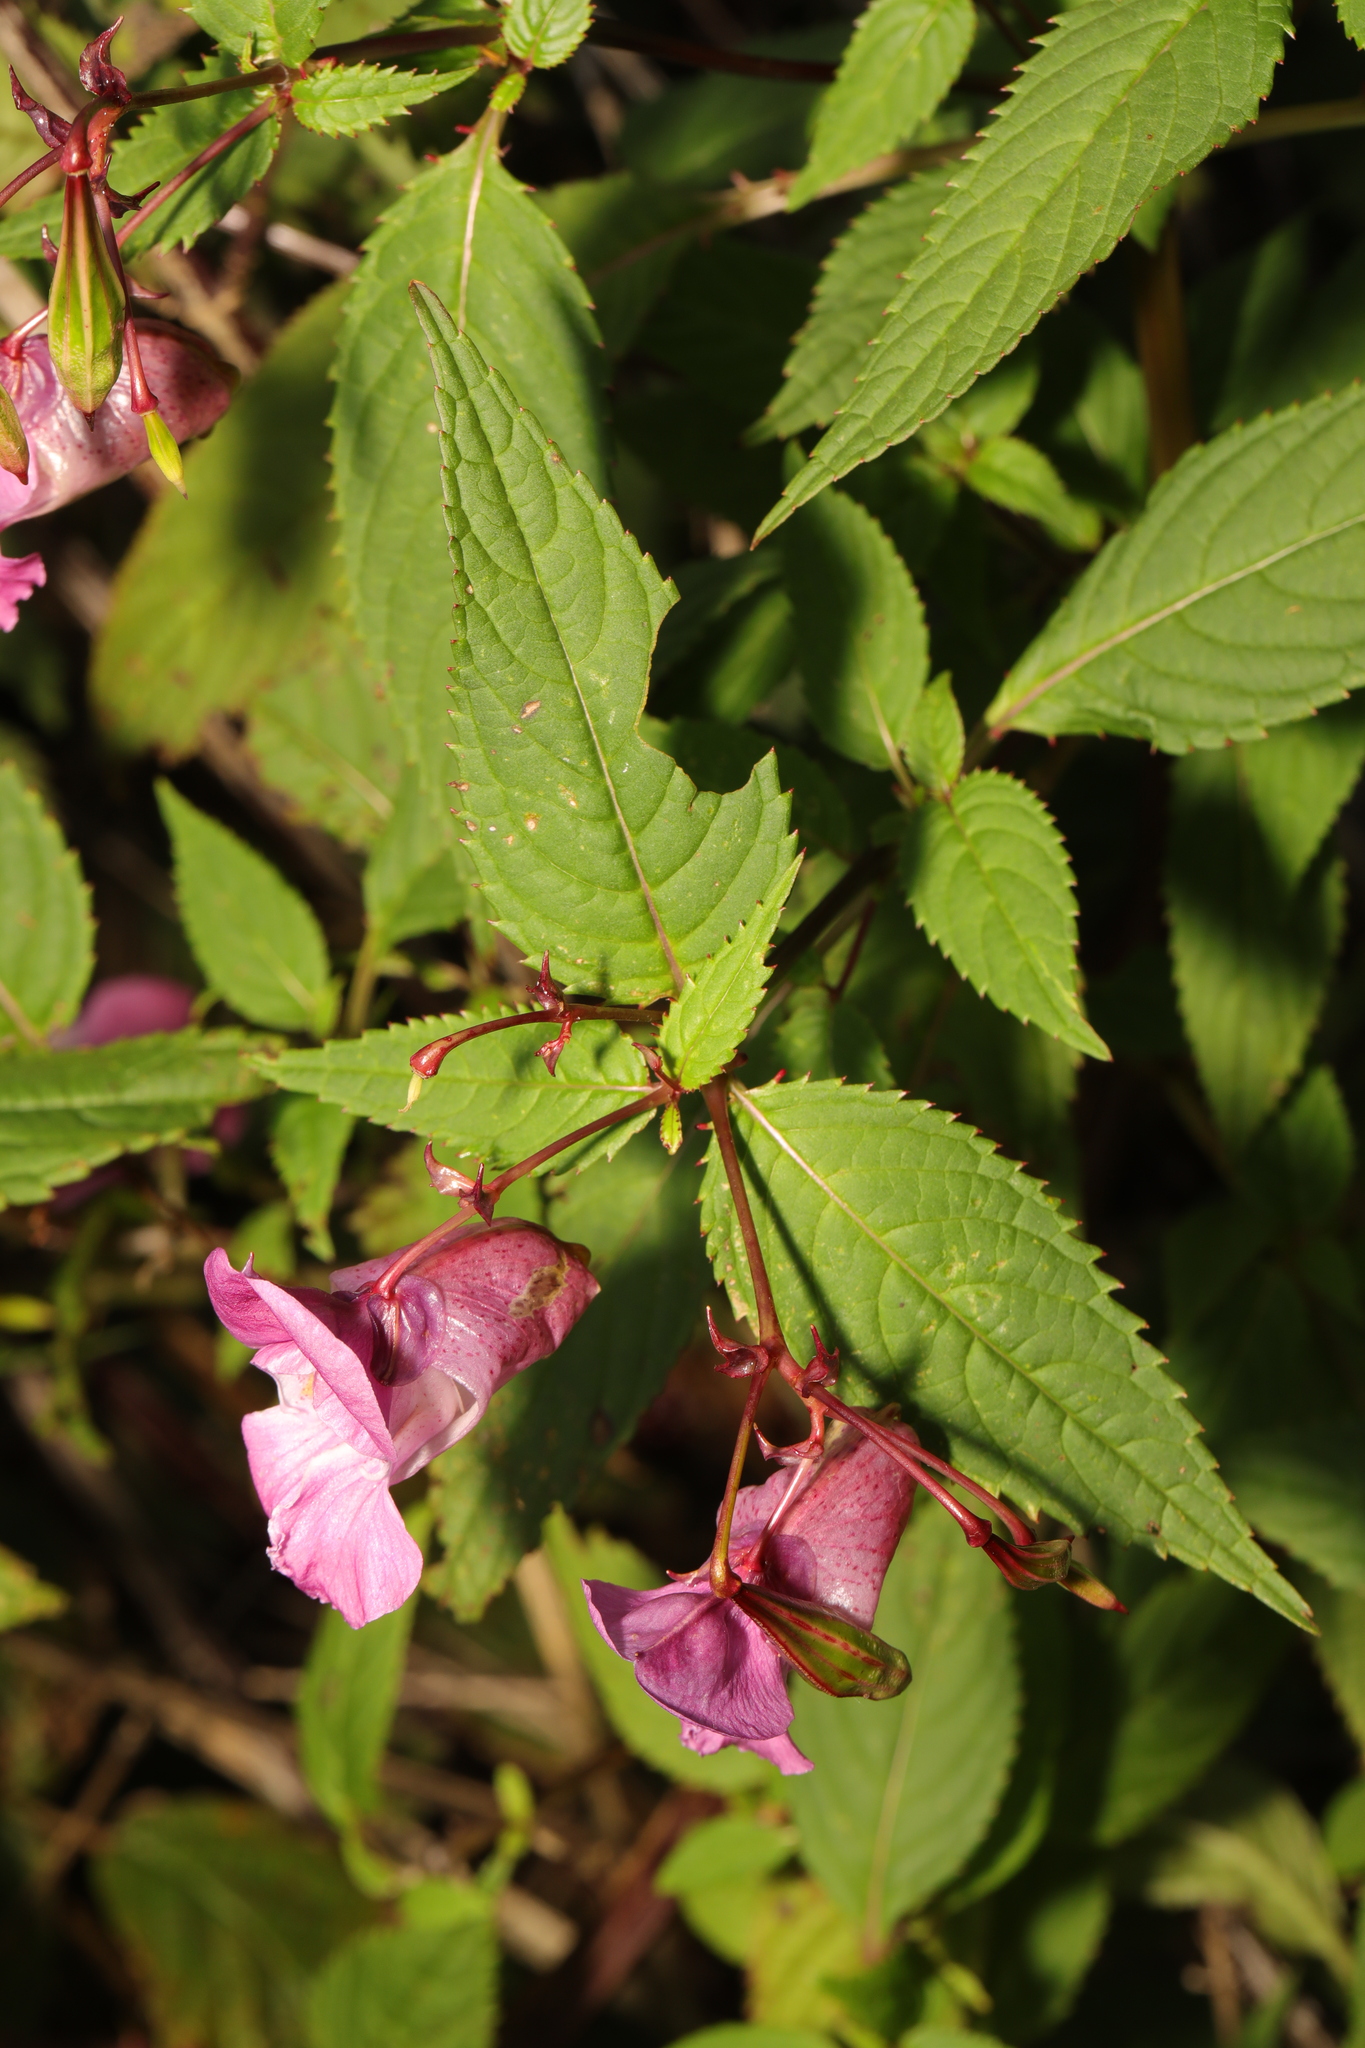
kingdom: Plantae
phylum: Tracheophyta
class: Magnoliopsida
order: Ericales
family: Balsaminaceae
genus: Impatiens
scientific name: Impatiens glandulifera
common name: Himalayan balsam
